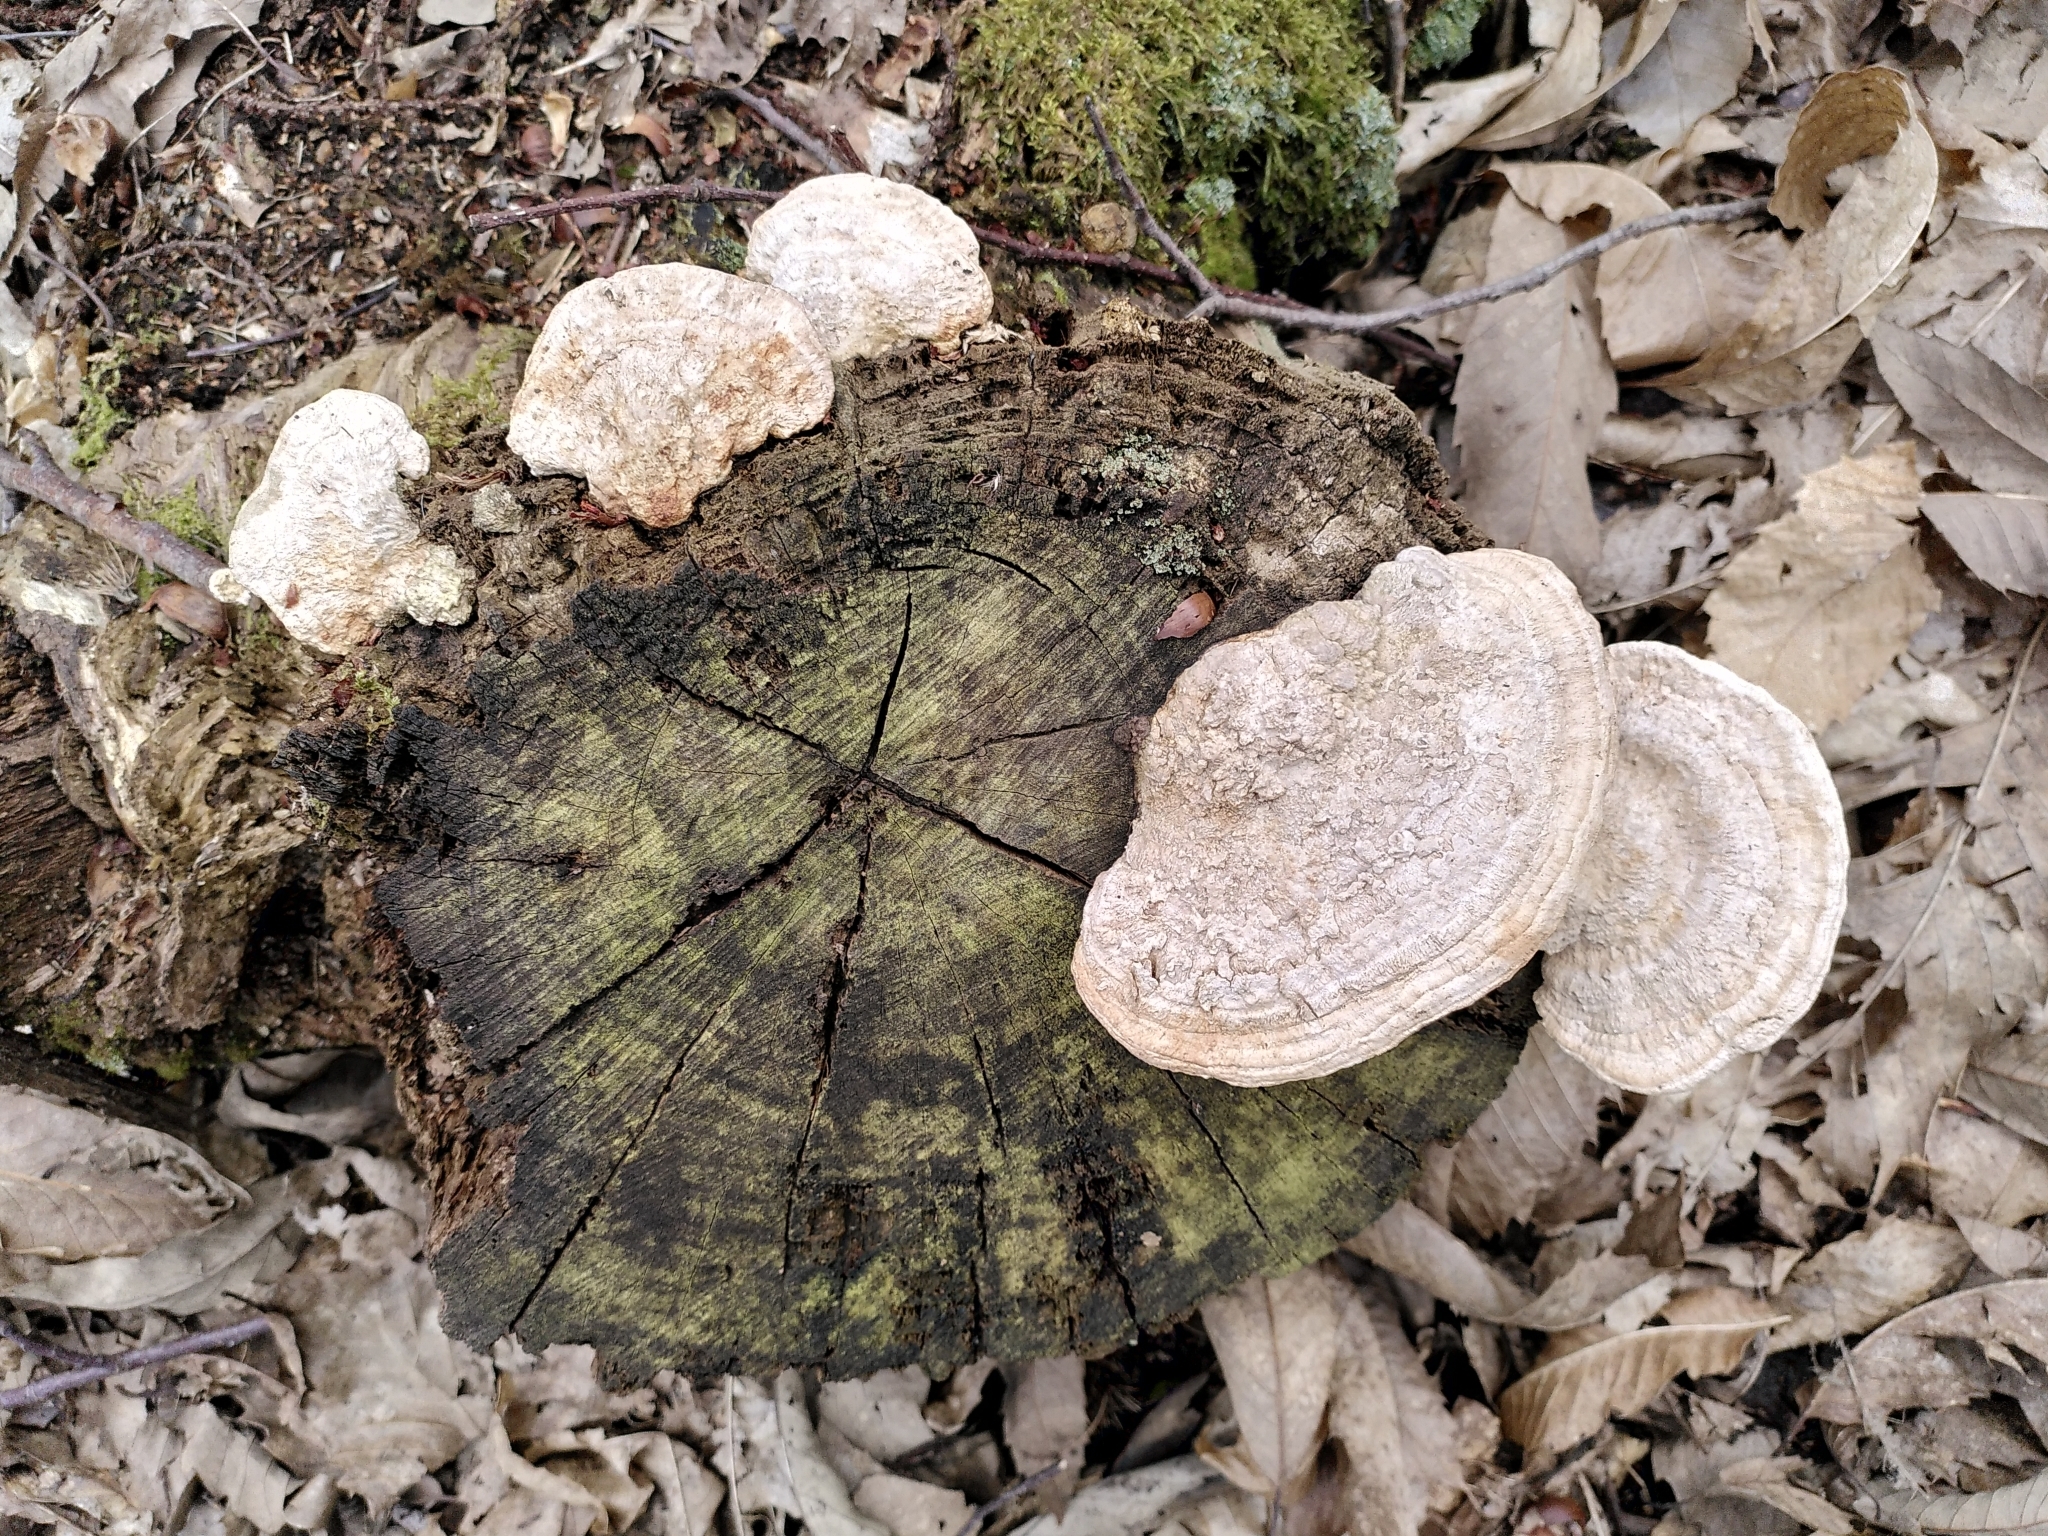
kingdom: Fungi
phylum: Basidiomycota
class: Agaricomycetes
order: Polyporales
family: Fomitopsidaceae
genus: Fomitopsis
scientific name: Fomitopsis
